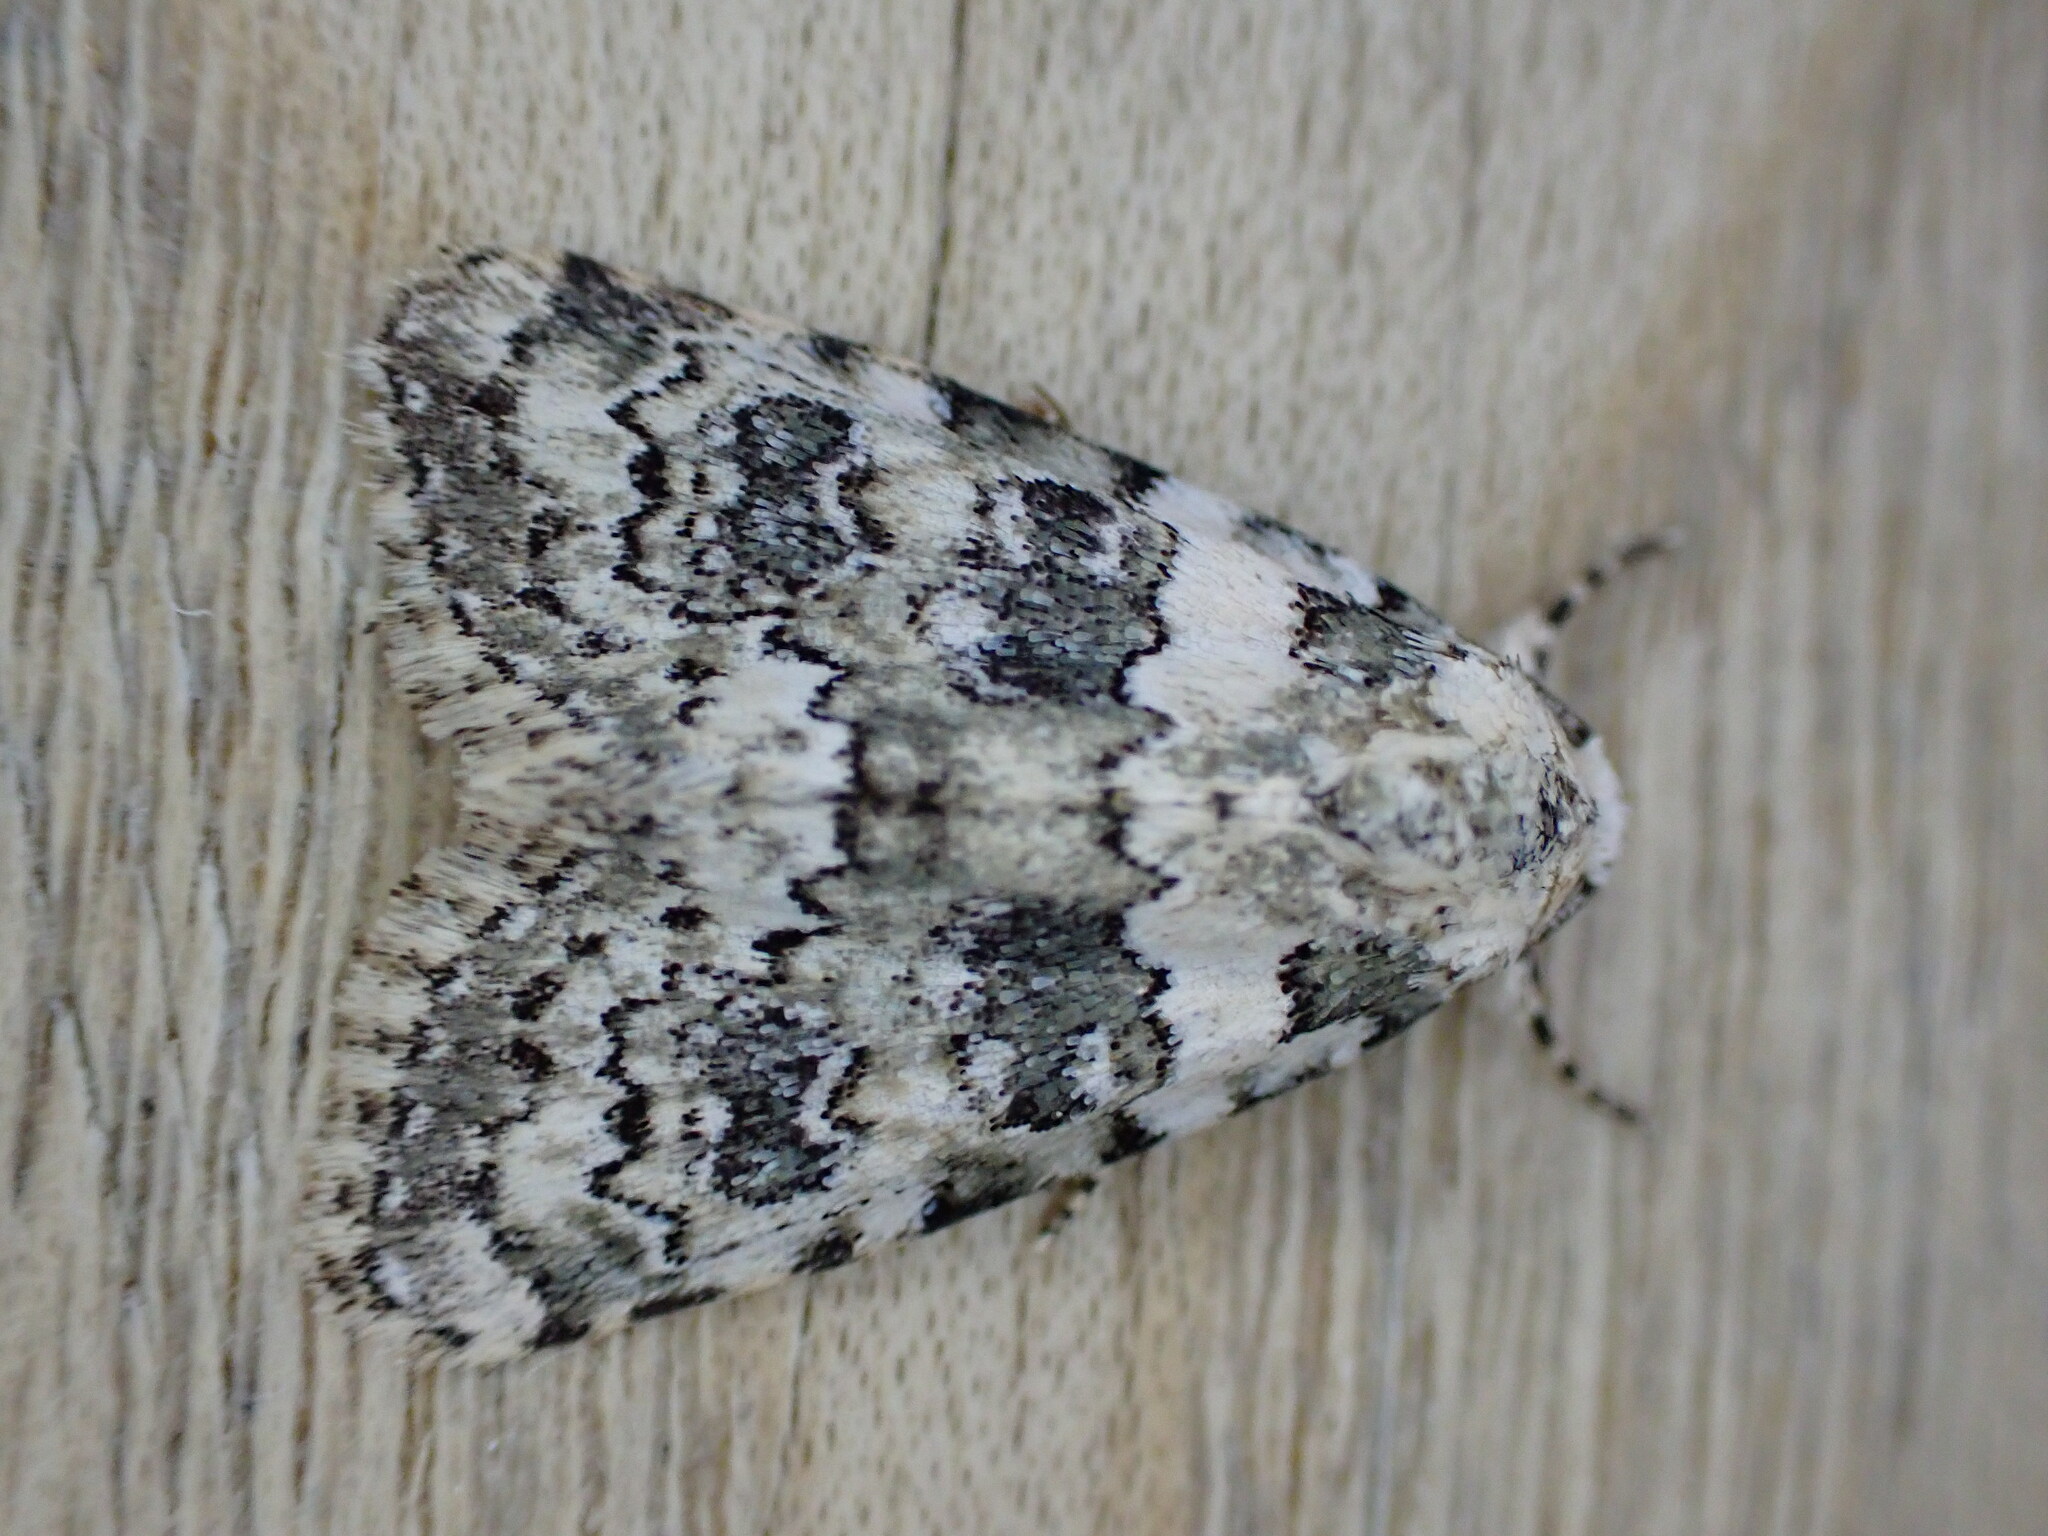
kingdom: Animalia
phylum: Arthropoda
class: Insecta
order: Lepidoptera
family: Noctuidae
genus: Bryophila
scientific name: Bryophila domestica
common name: Marbled beauty
